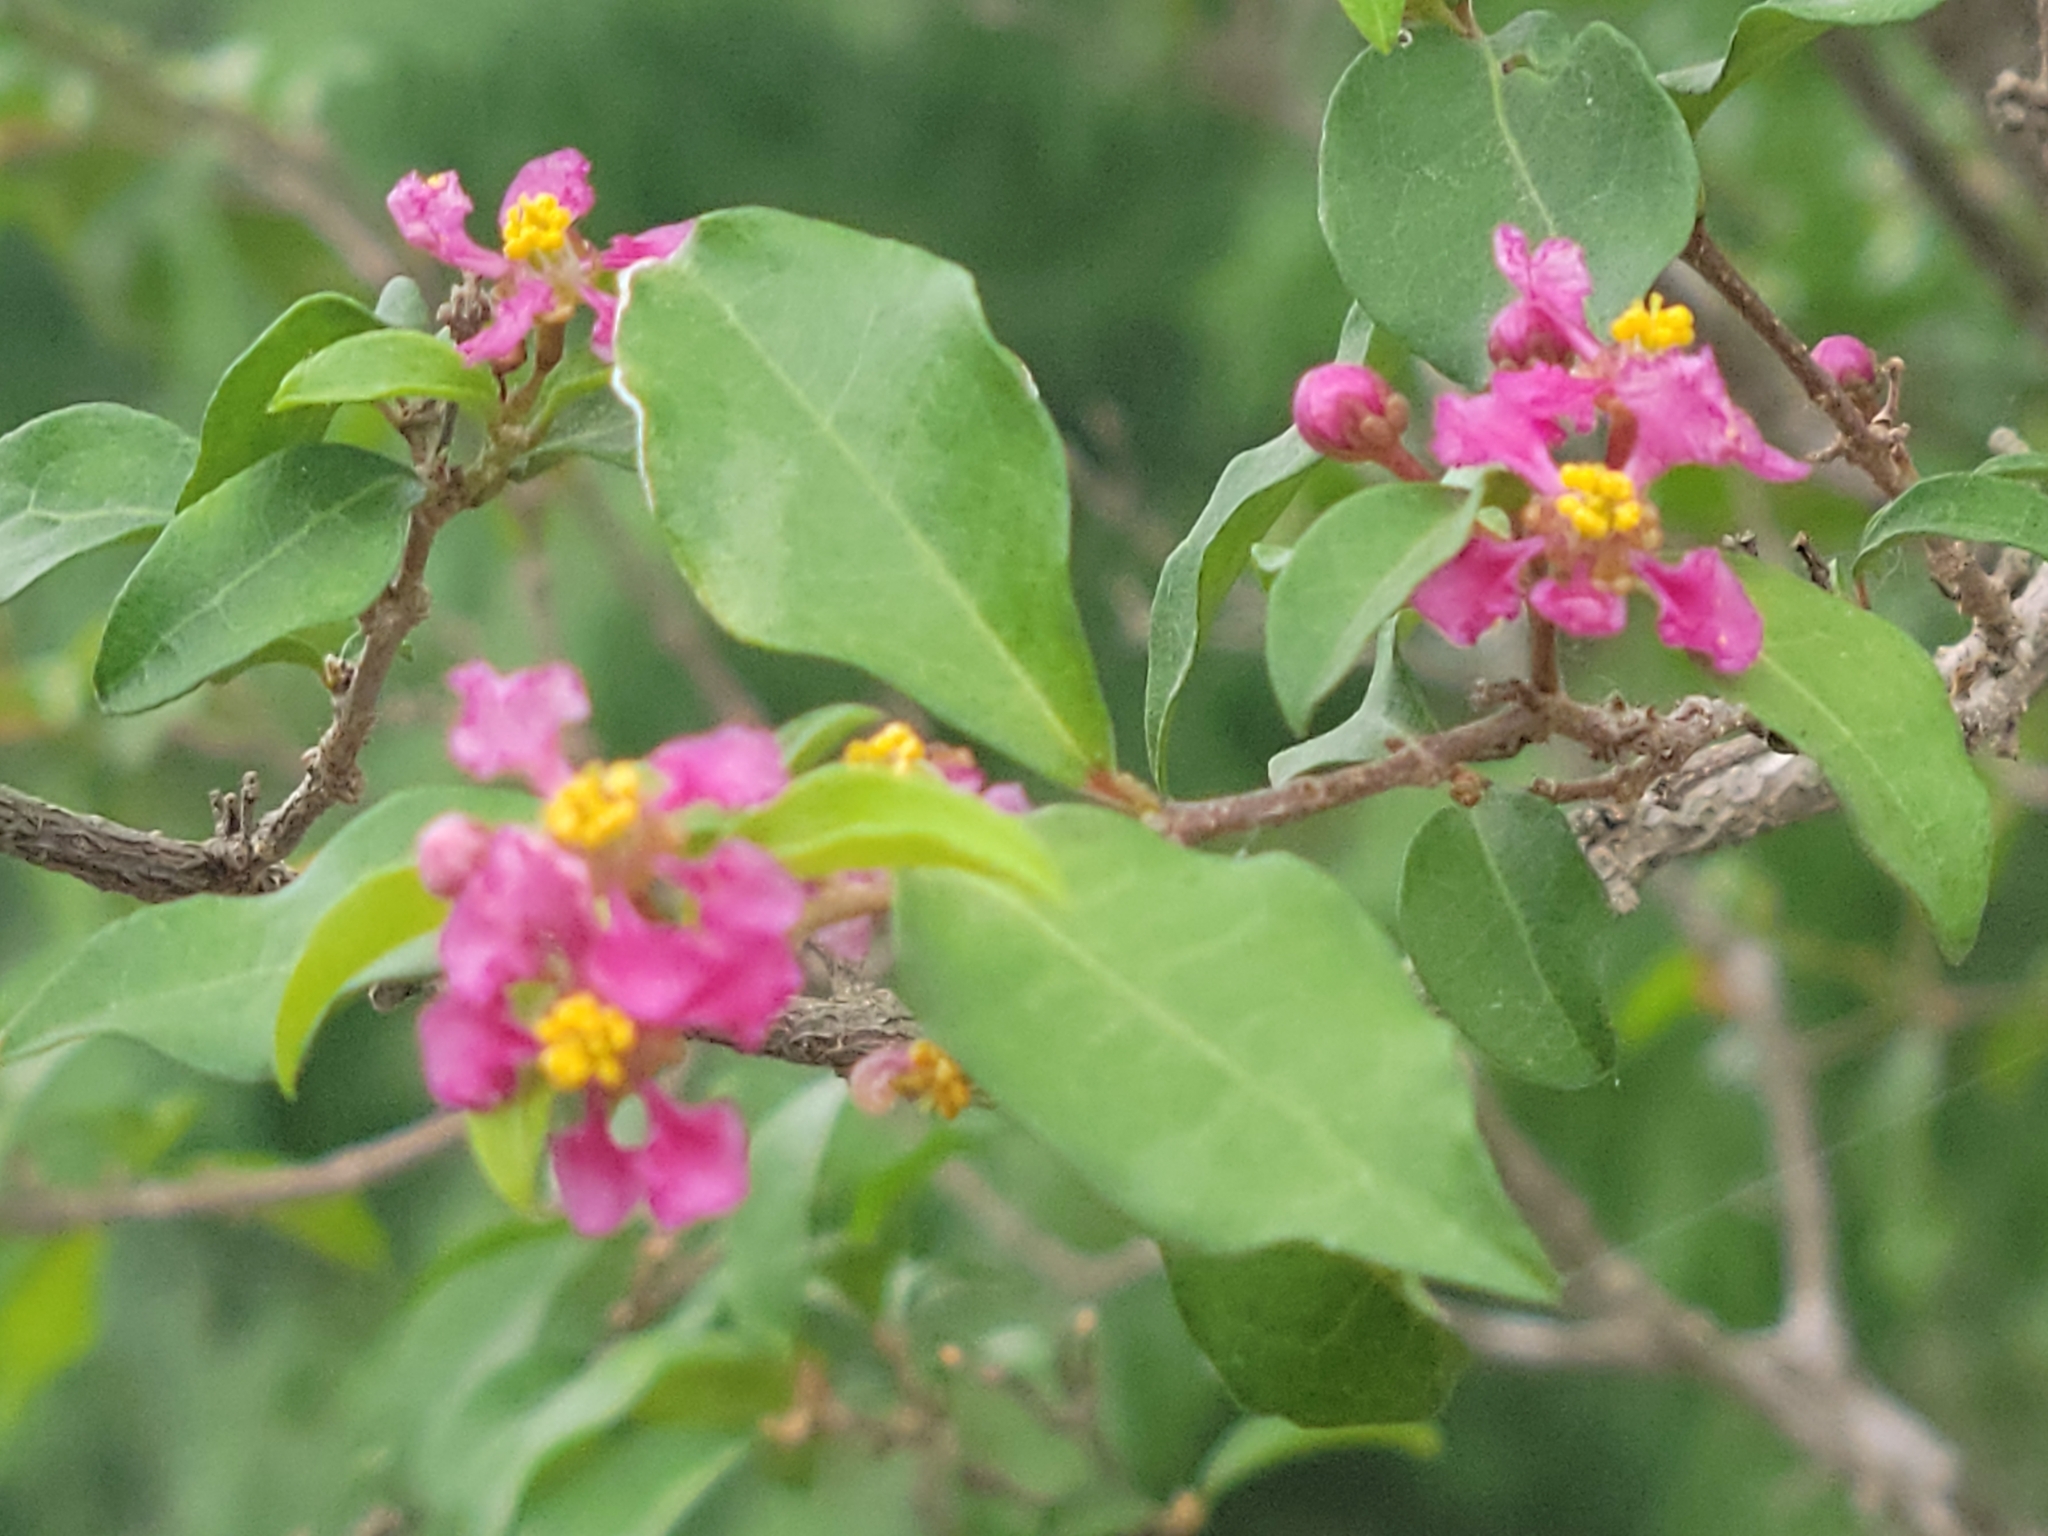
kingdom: Plantae
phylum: Tracheophyta
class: Magnoliopsida
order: Malpighiales
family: Malpighiaceae
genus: Malpighia
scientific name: Malpighia glabra
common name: Barbados cherry
